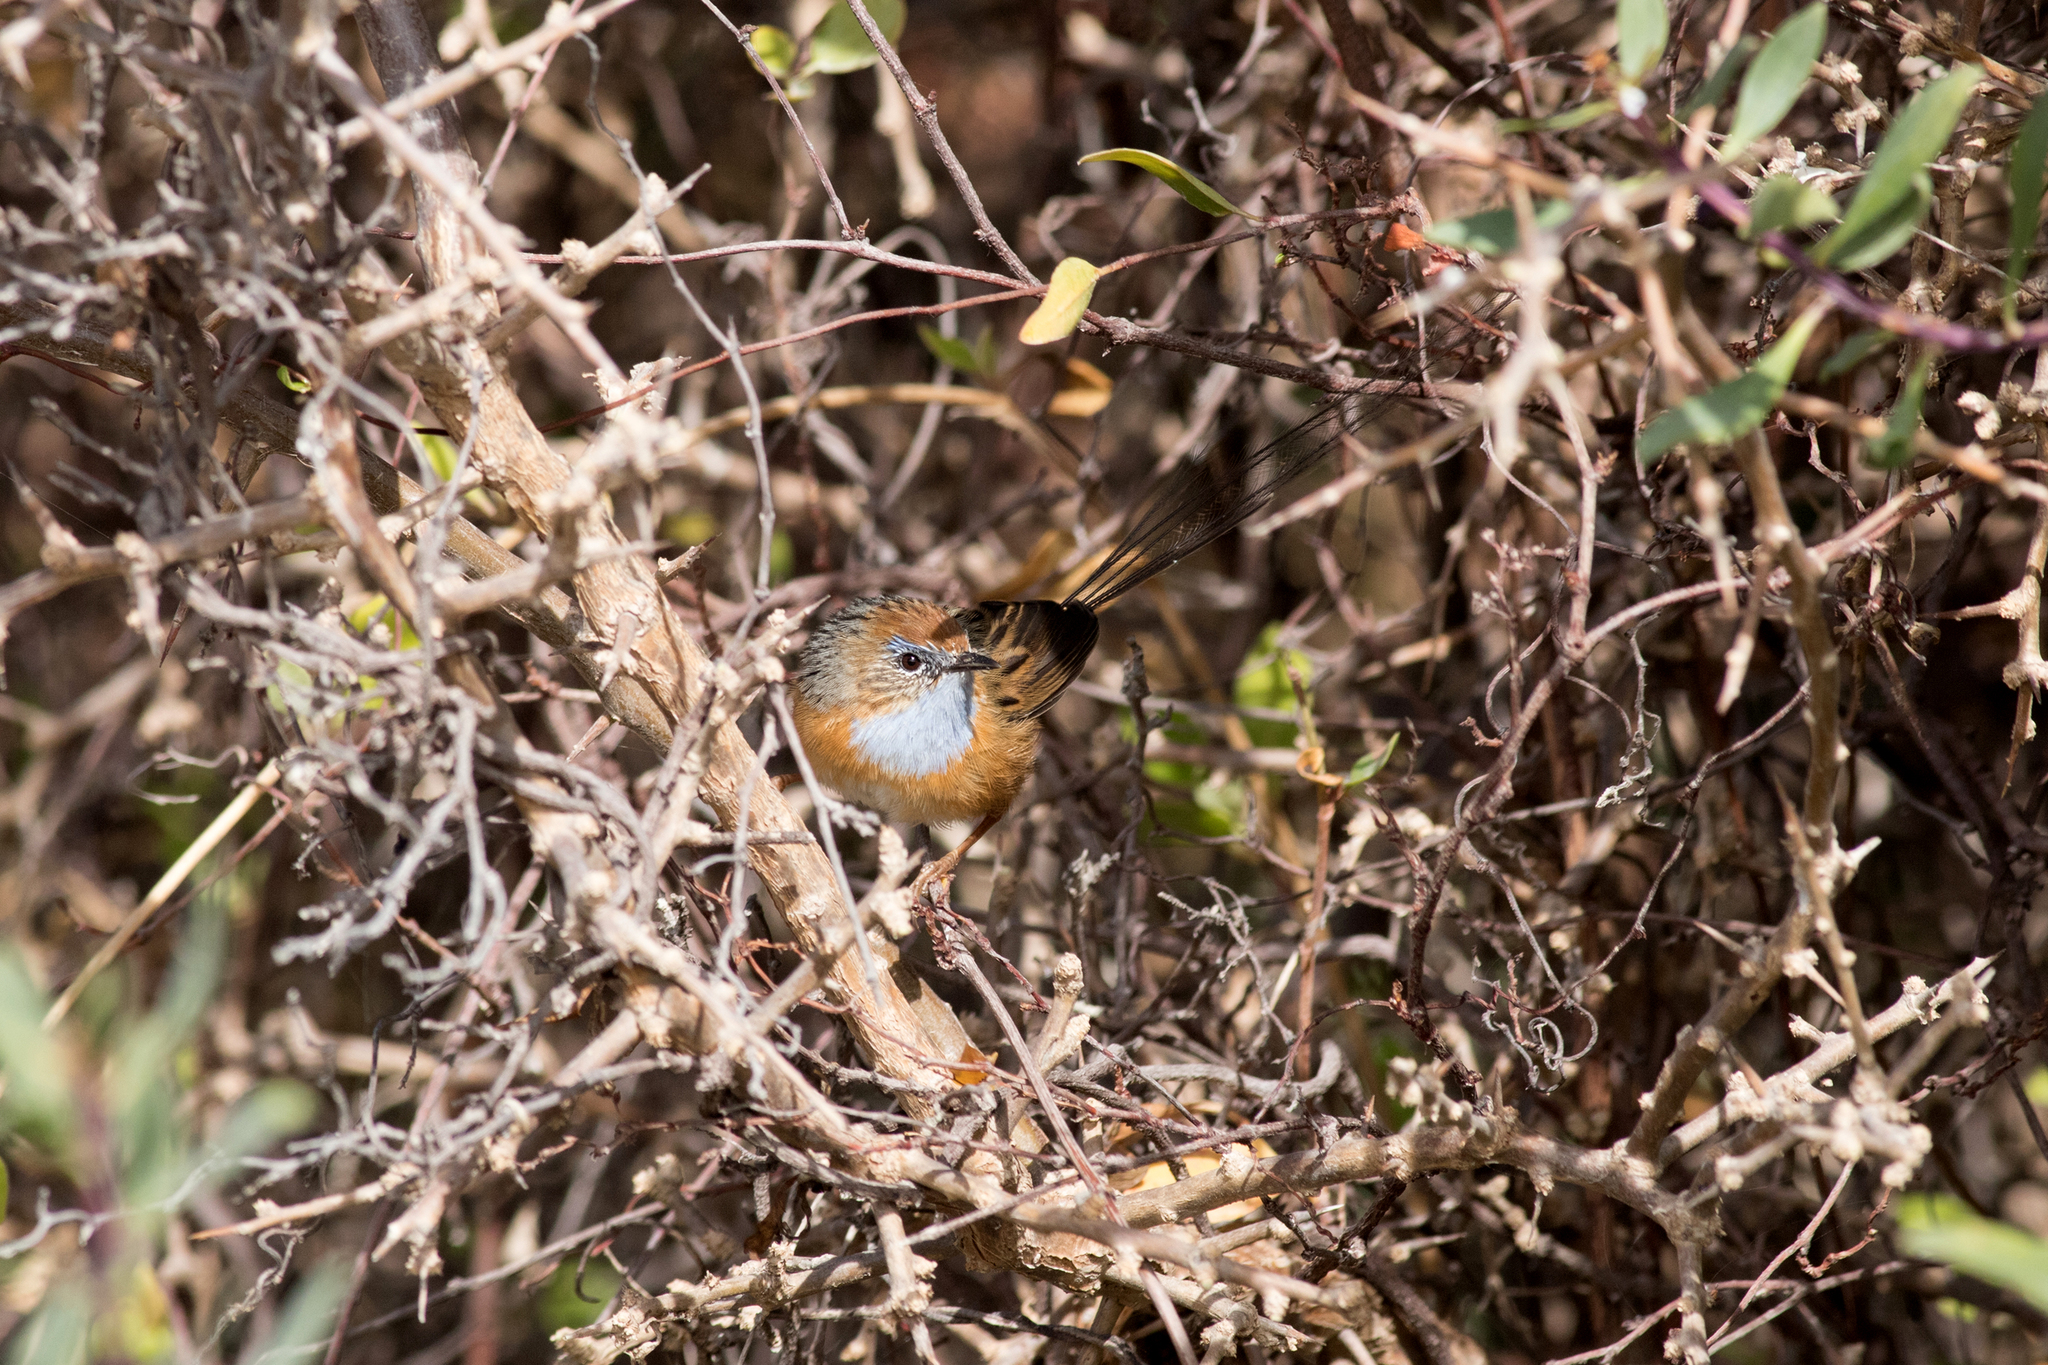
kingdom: Animalia
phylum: Chordata
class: Aves
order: Passeriformes
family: Maluridae
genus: Stipiturus
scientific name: Stipiturus malachurus
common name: Southern emu-wren
